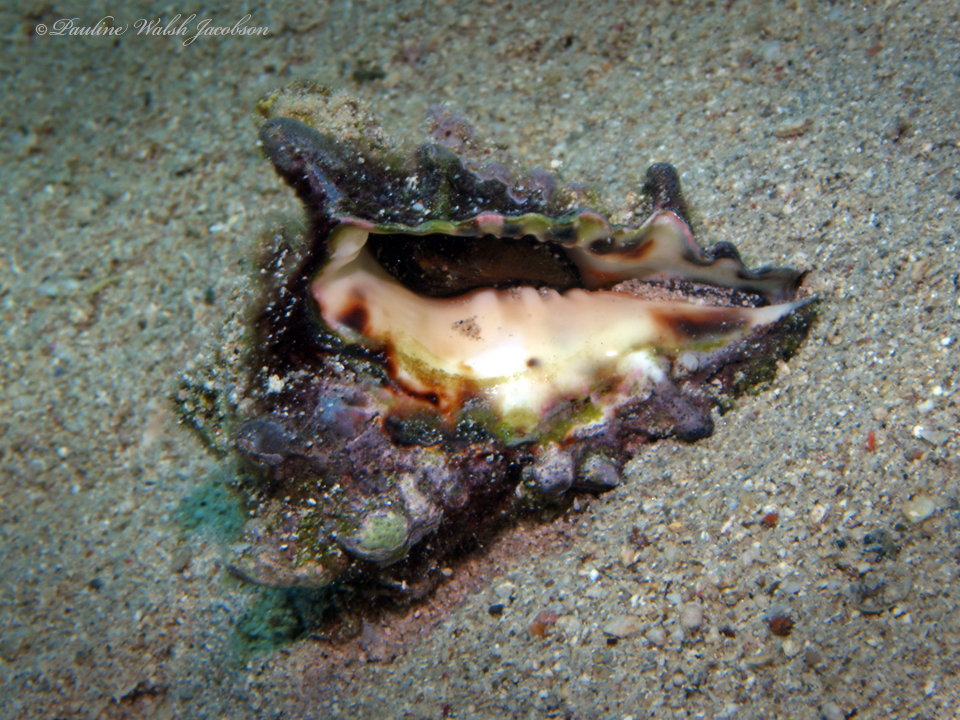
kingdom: Animalia
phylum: Mollusca
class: Gastropoda
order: Neogastropoda
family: Turbinellidae
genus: Vasum
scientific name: Vasum turbinellus
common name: Pacific top vase
